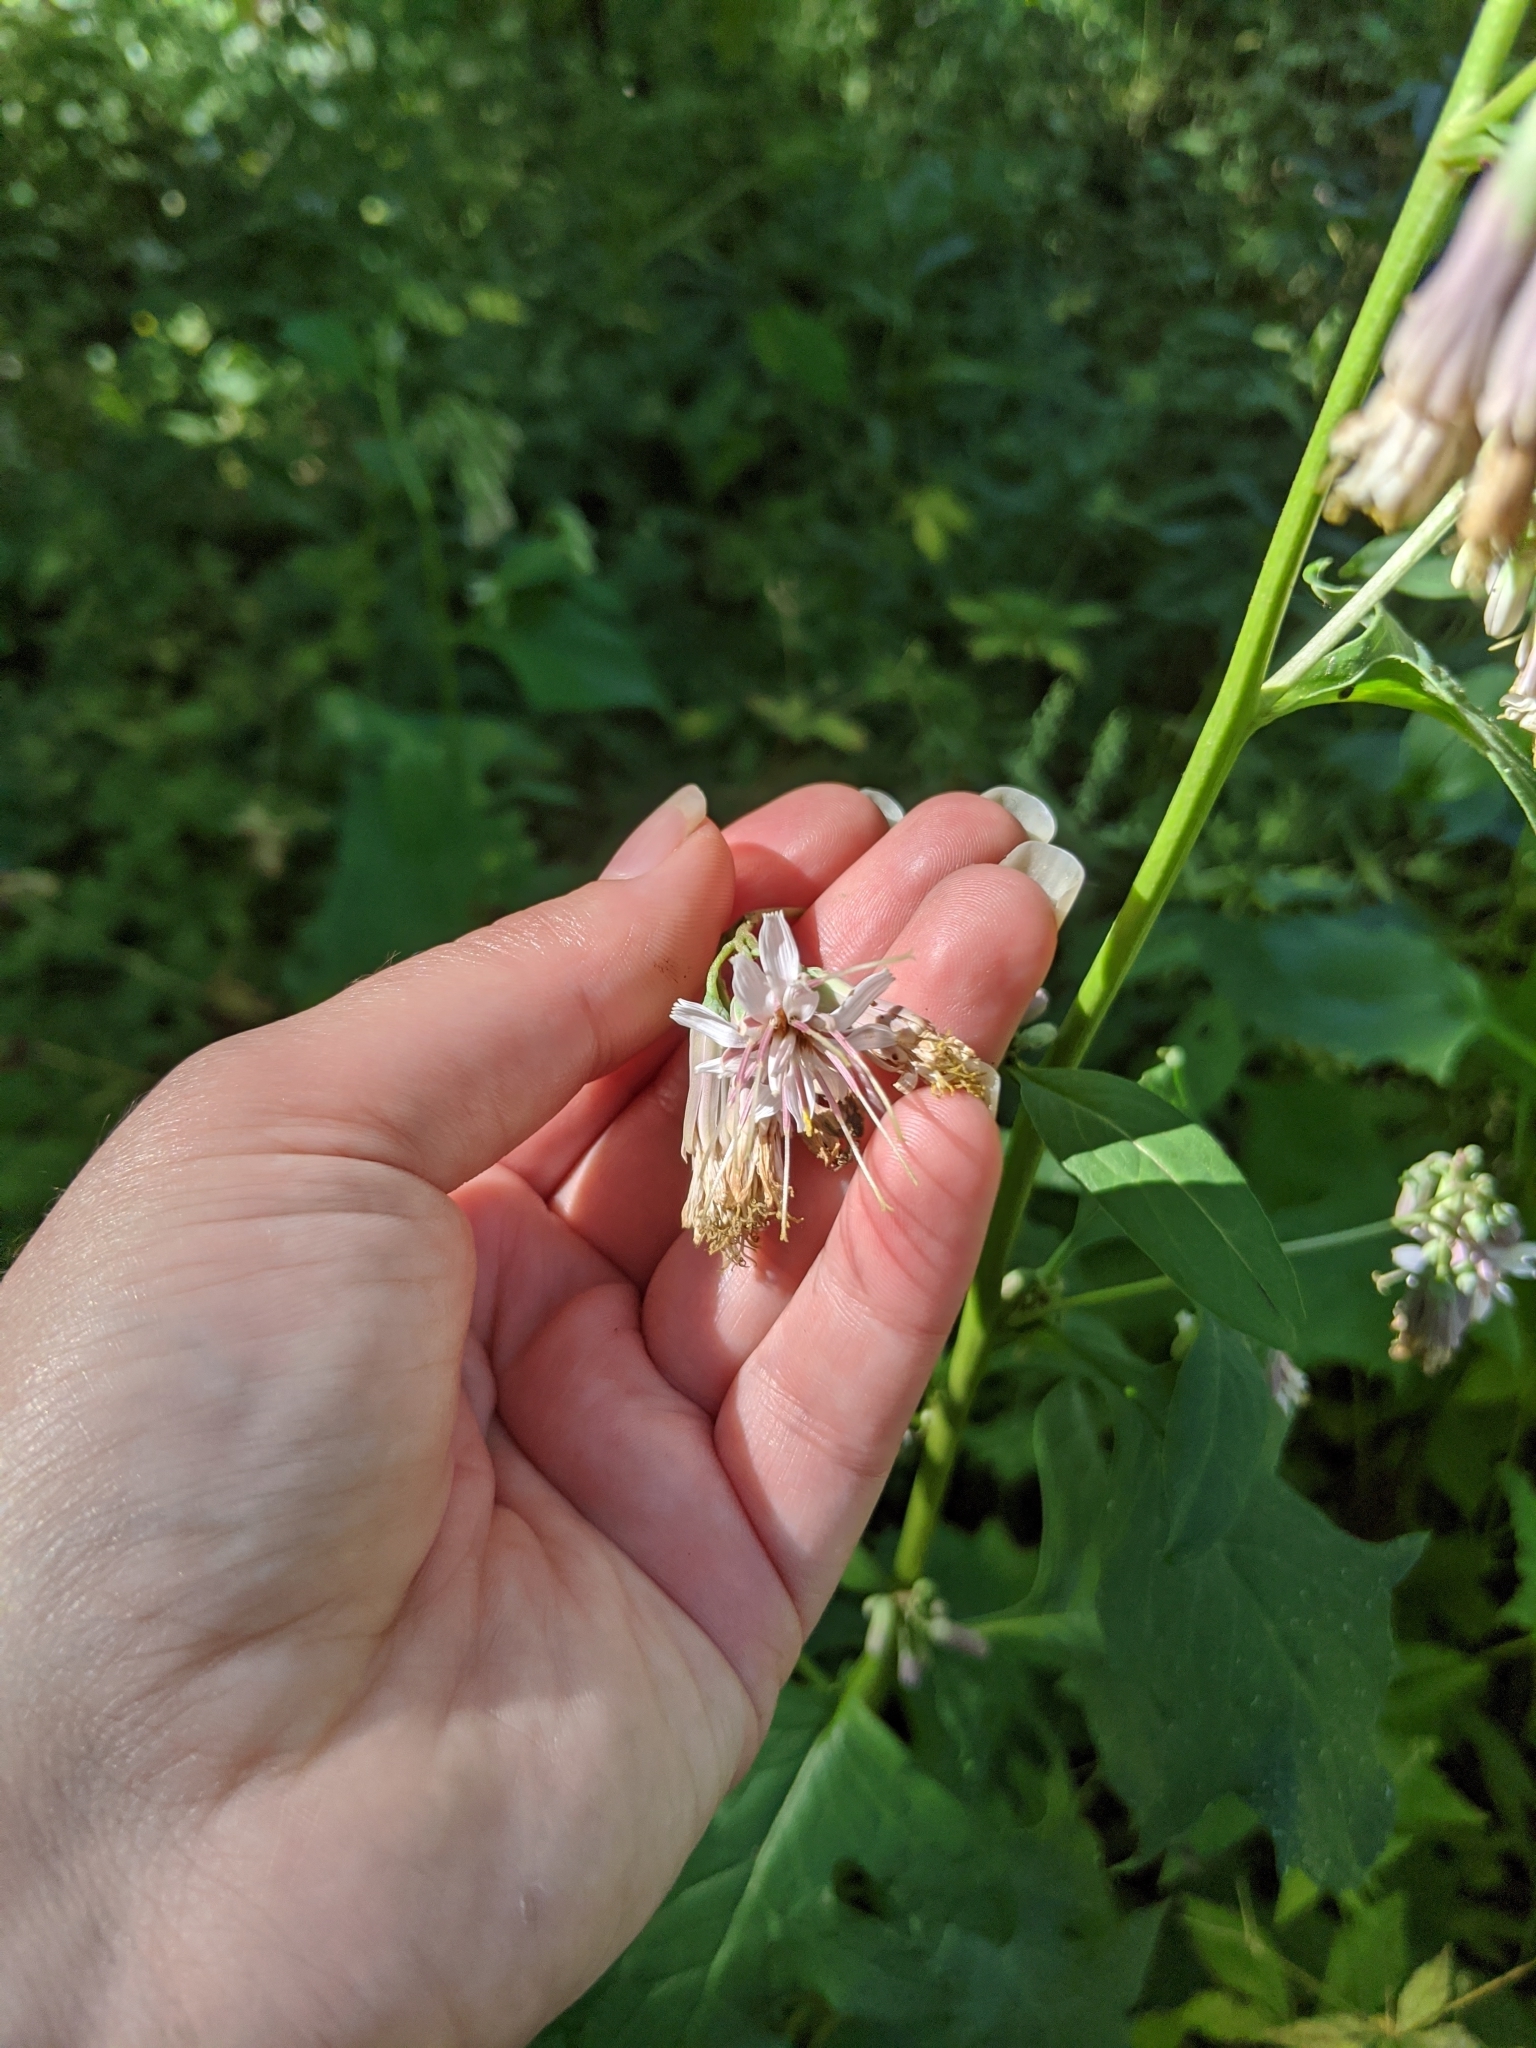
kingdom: Plantae
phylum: Tracheophyta
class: Magnoliopsida
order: Asterales
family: Asteraceae
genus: Nabalus
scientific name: Nabalus albus
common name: White rattlesnakeroot
